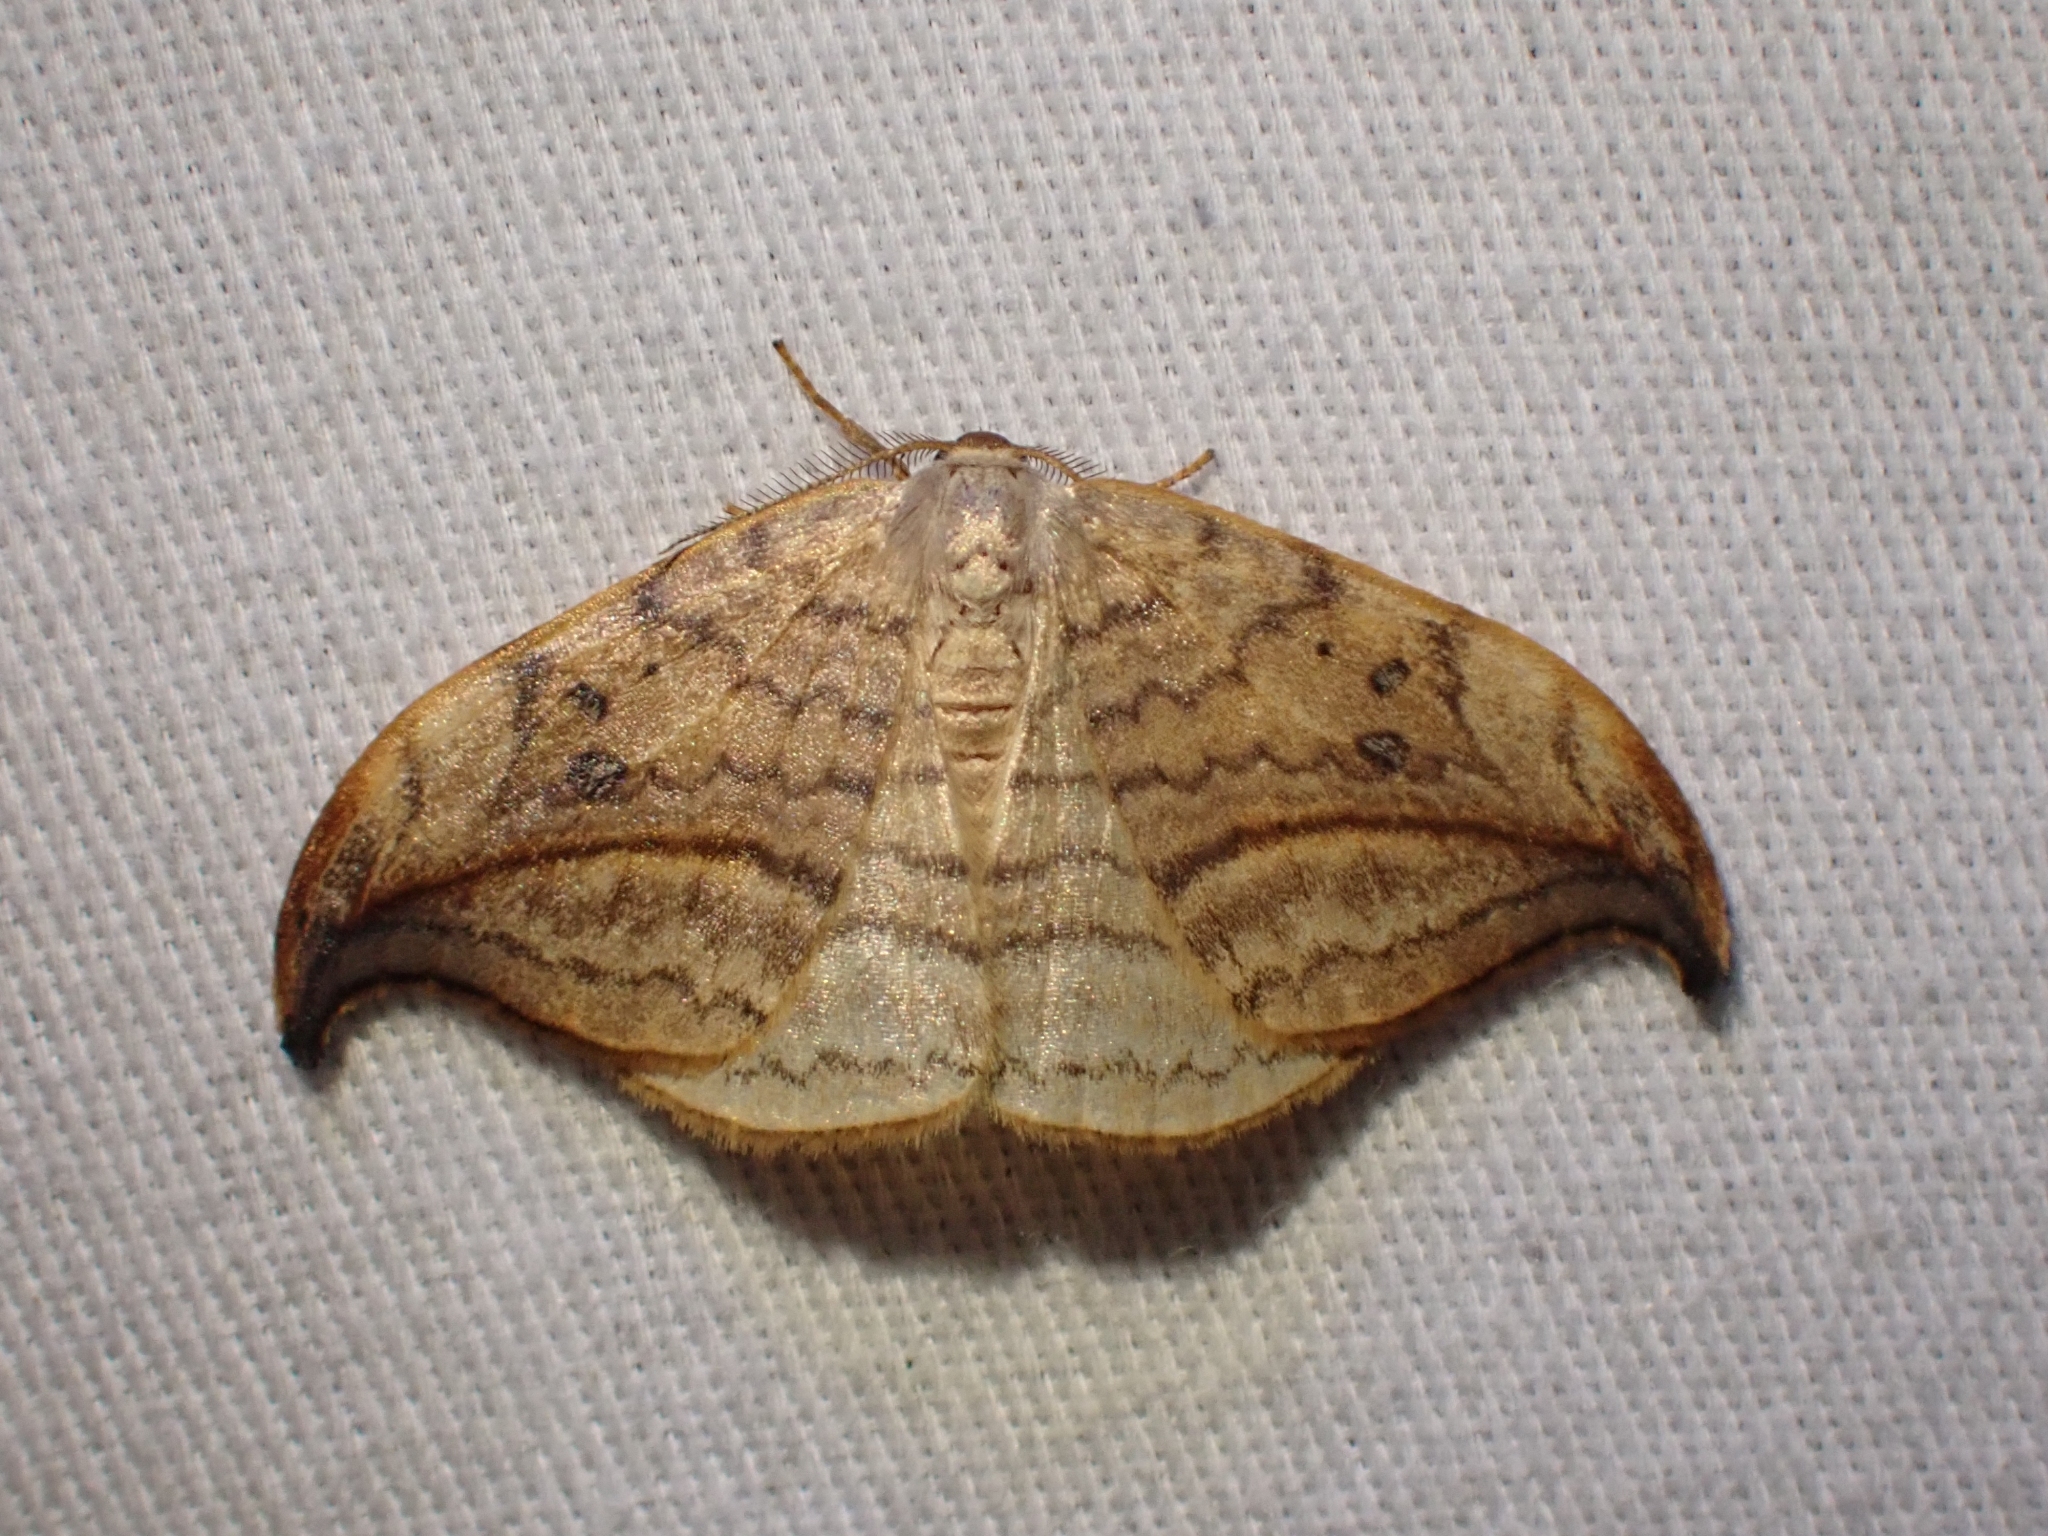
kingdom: Animalia
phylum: Arthropoda
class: Insecta
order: Lepidoptera
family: Drepanidae
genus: Drepana
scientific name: Drepana arcuata
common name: Arched hooktip moth
